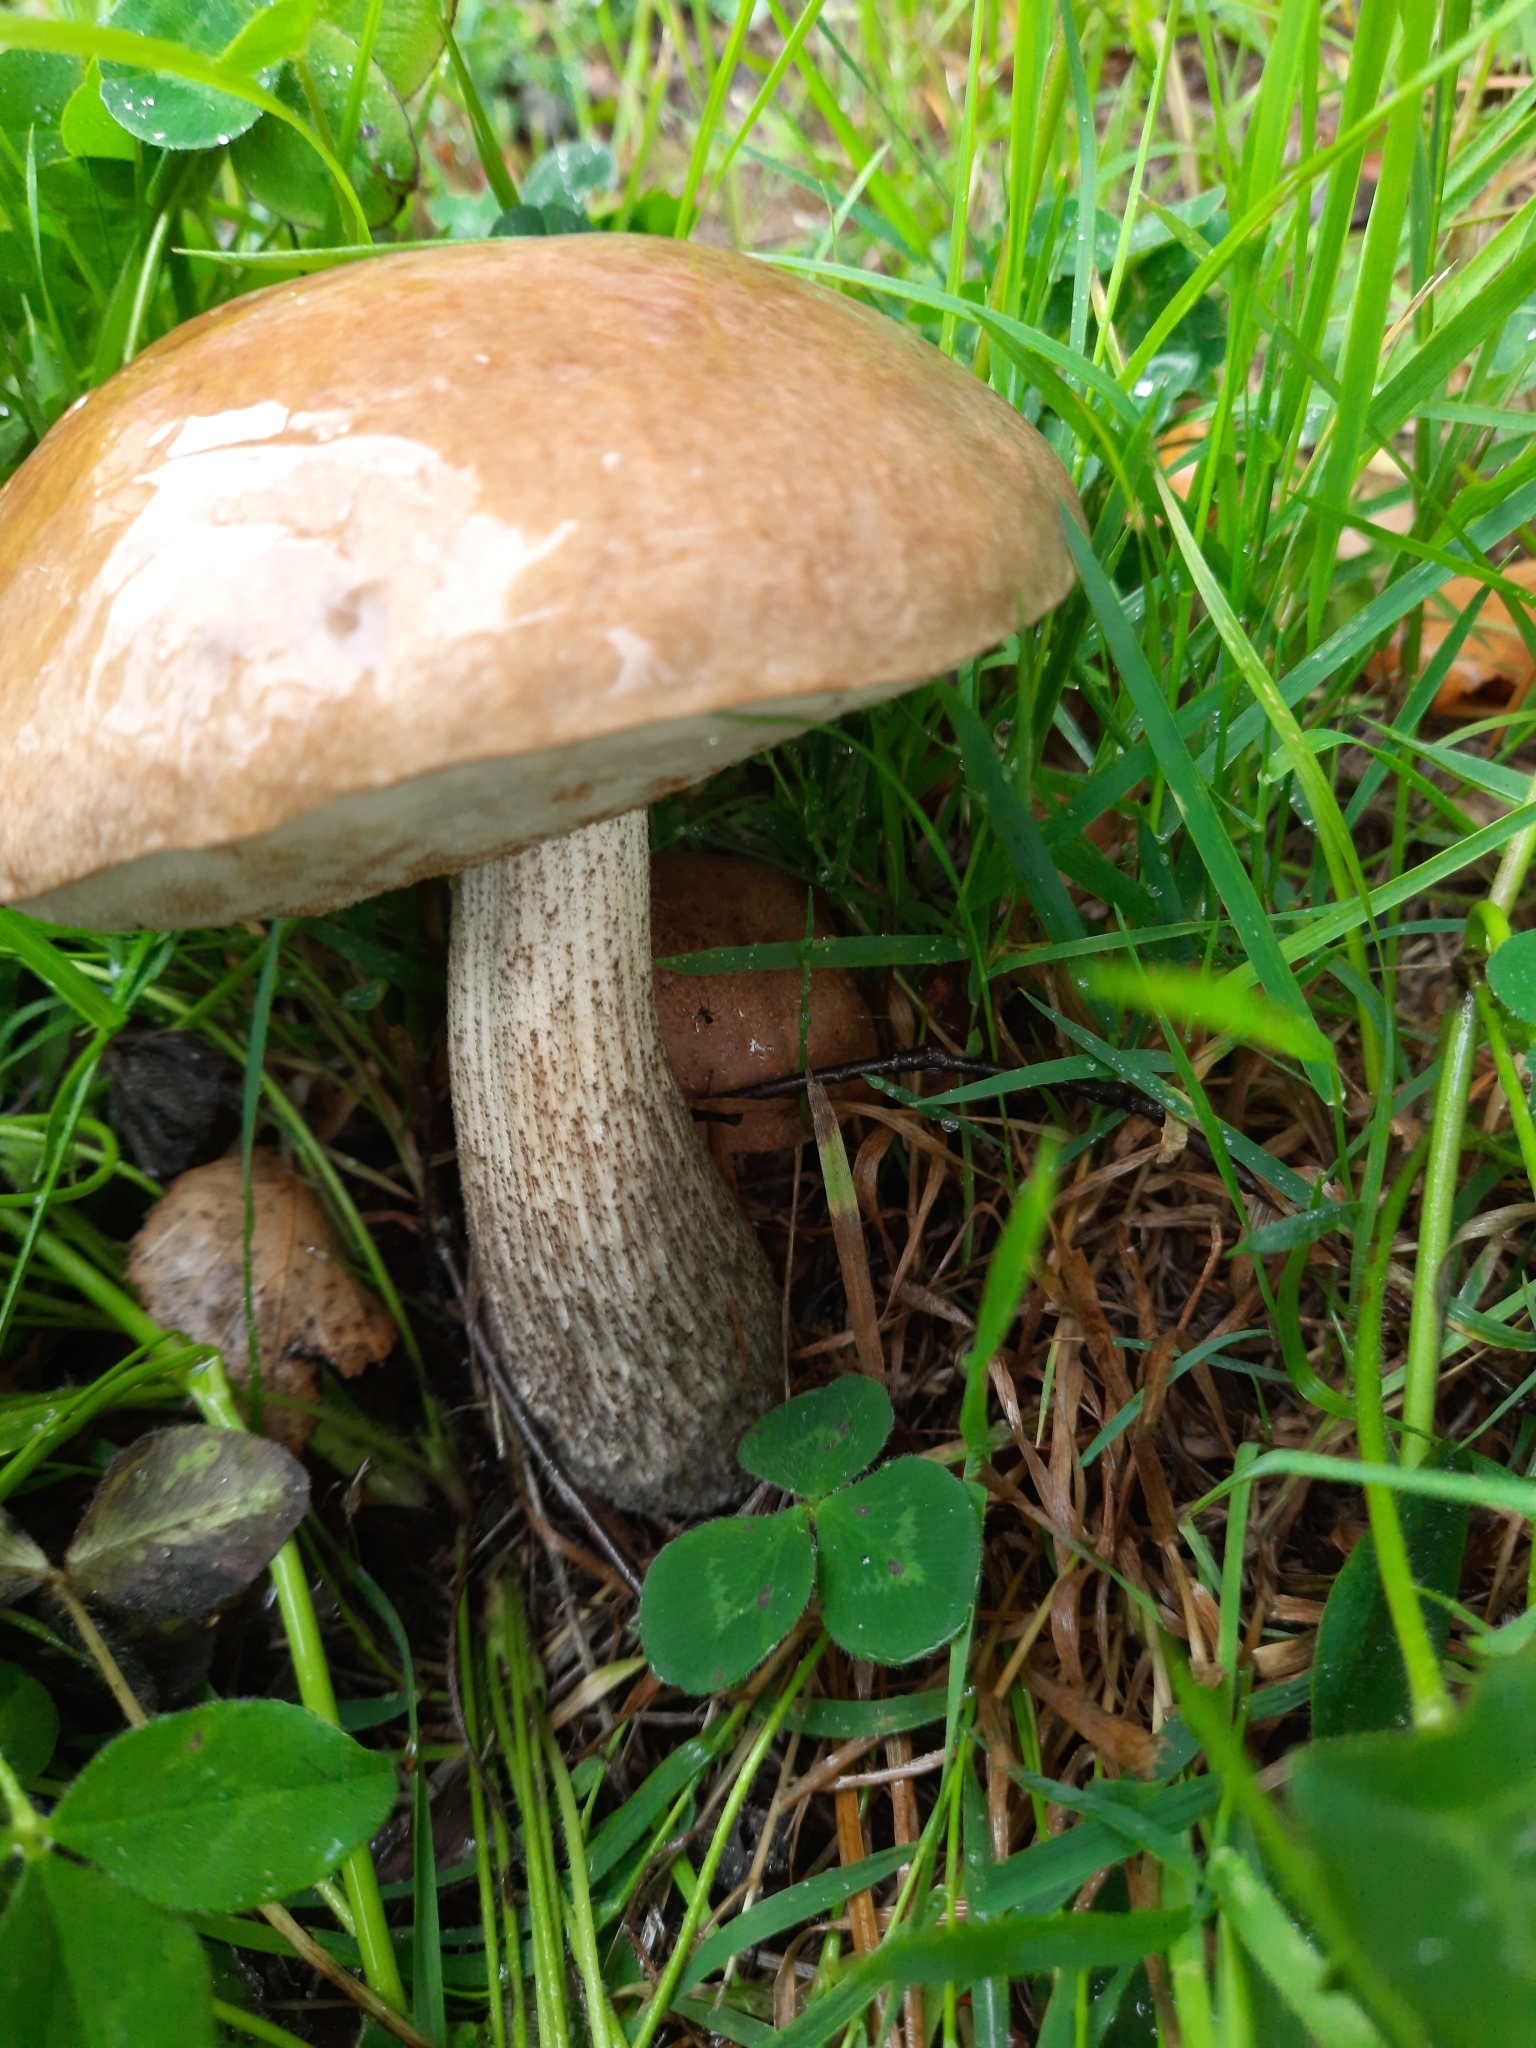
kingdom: Fungi
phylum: Basidiomycota
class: Agaricomycetes
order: Boletales
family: Boletaceae
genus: Leccinum
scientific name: Leccinum scabrum
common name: Blushing bolete
